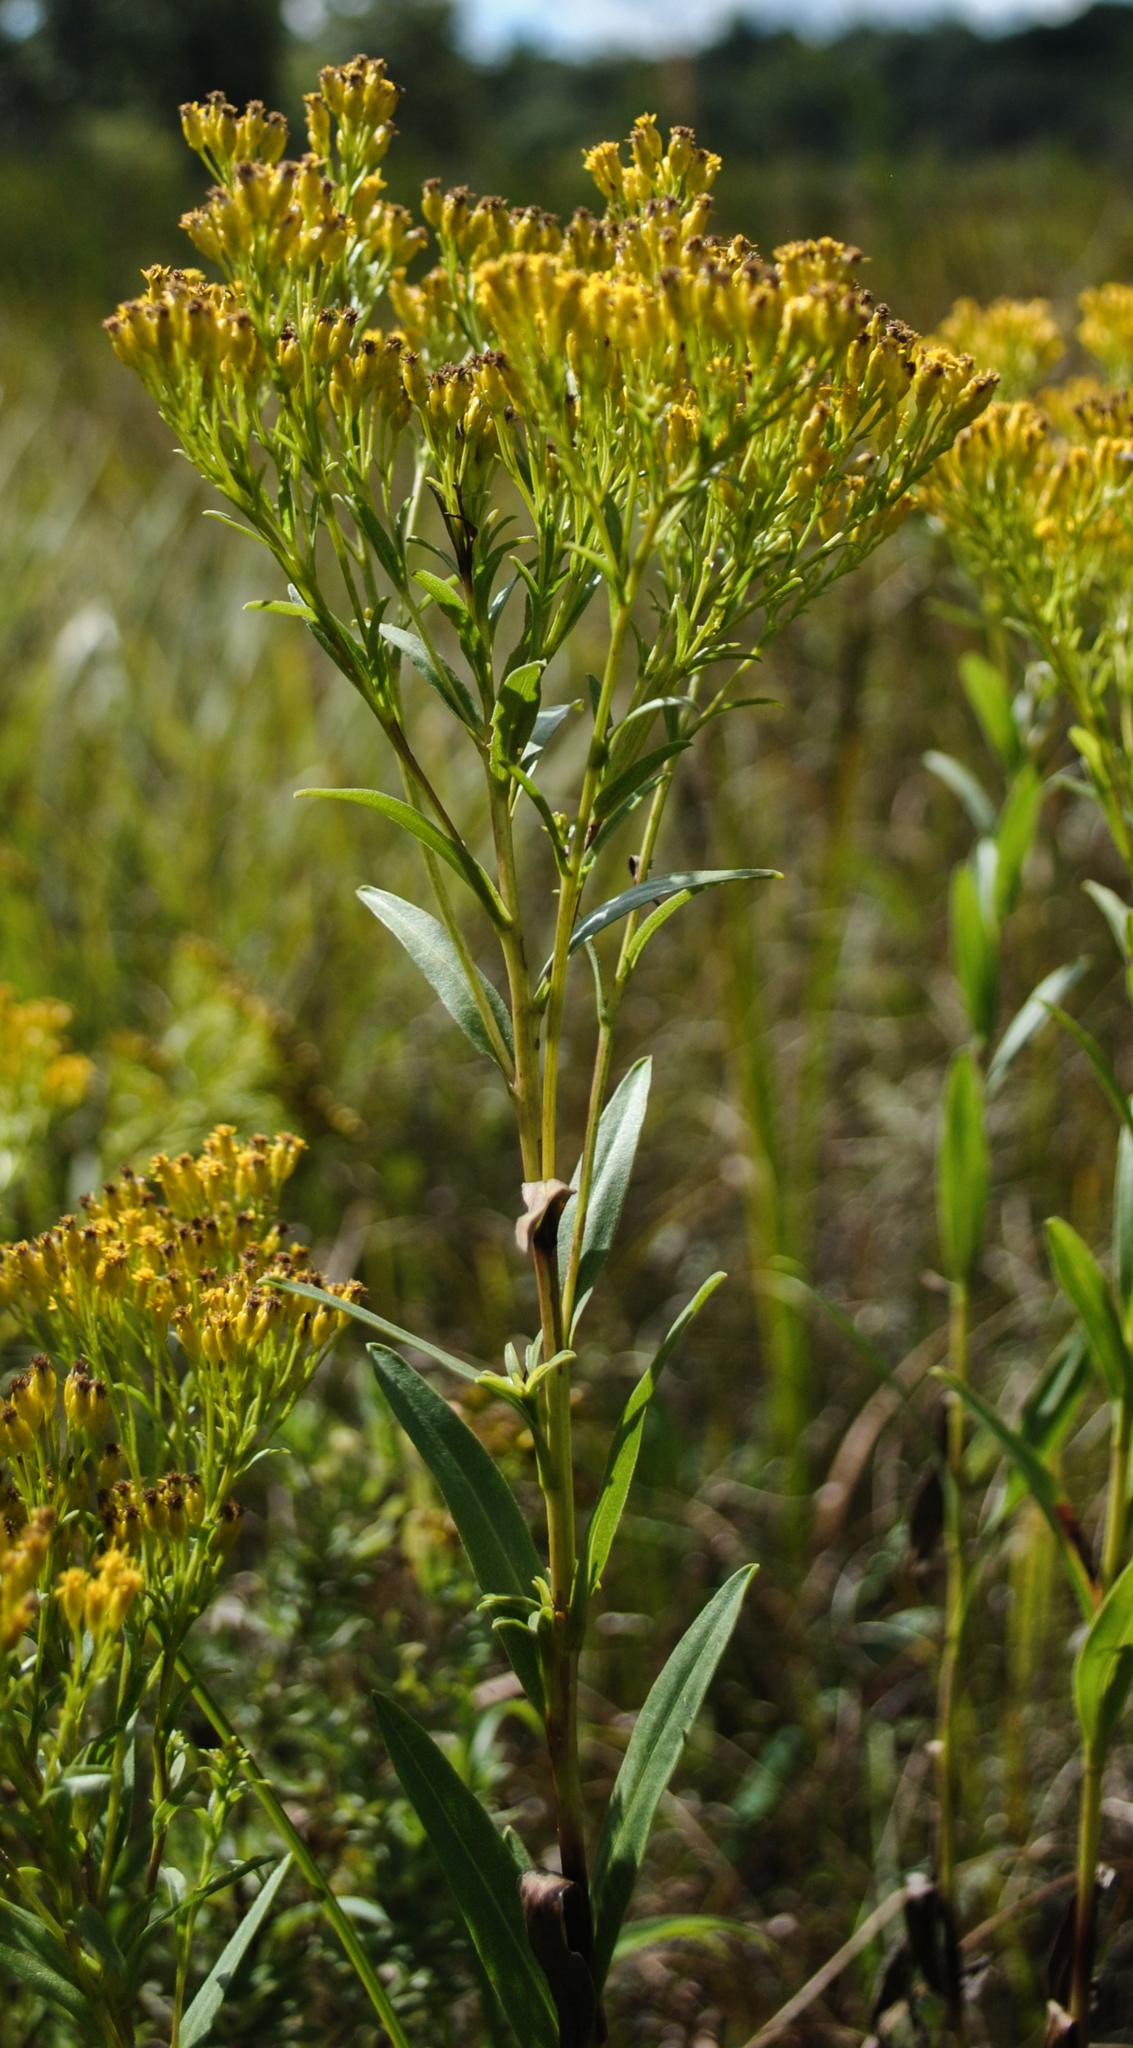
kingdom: Plantae
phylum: Tracheophyta
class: Magnoliopsida
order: Asterales
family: Asteraceae
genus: Solidago
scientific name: Solidago ohioensis
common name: Ohio goldenrod
